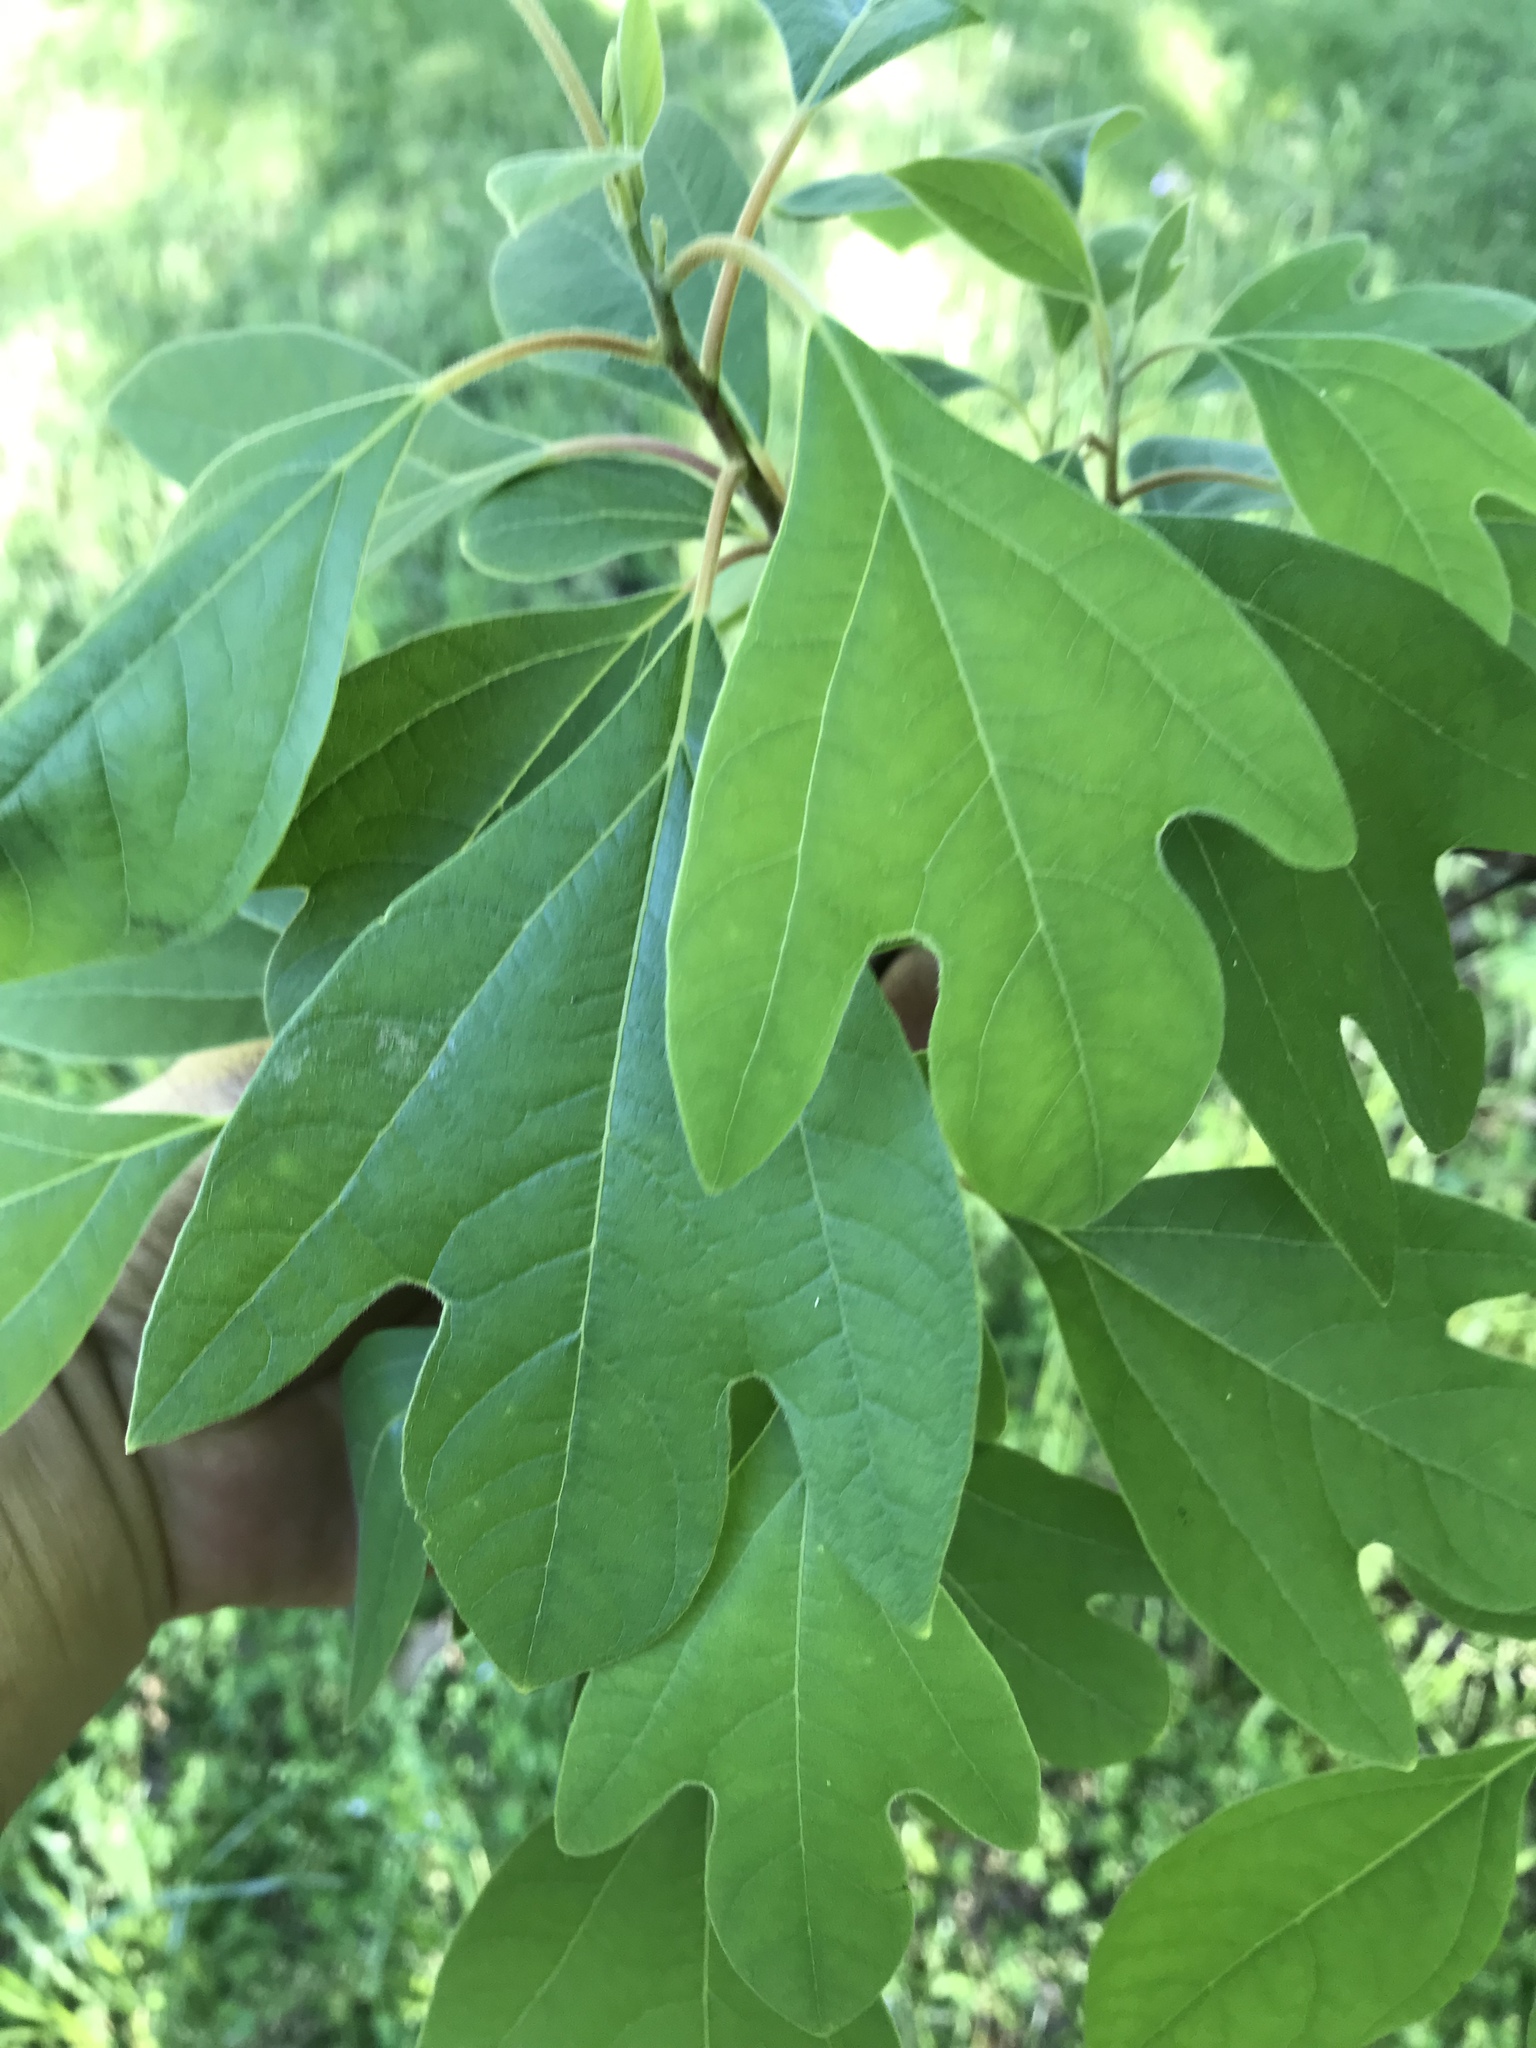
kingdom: Plantae
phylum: Tracheophyta
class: Magnoliopsida
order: Laurales
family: Lauraceae
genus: Sassafras
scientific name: Sassafras albidum
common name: Sassafras
